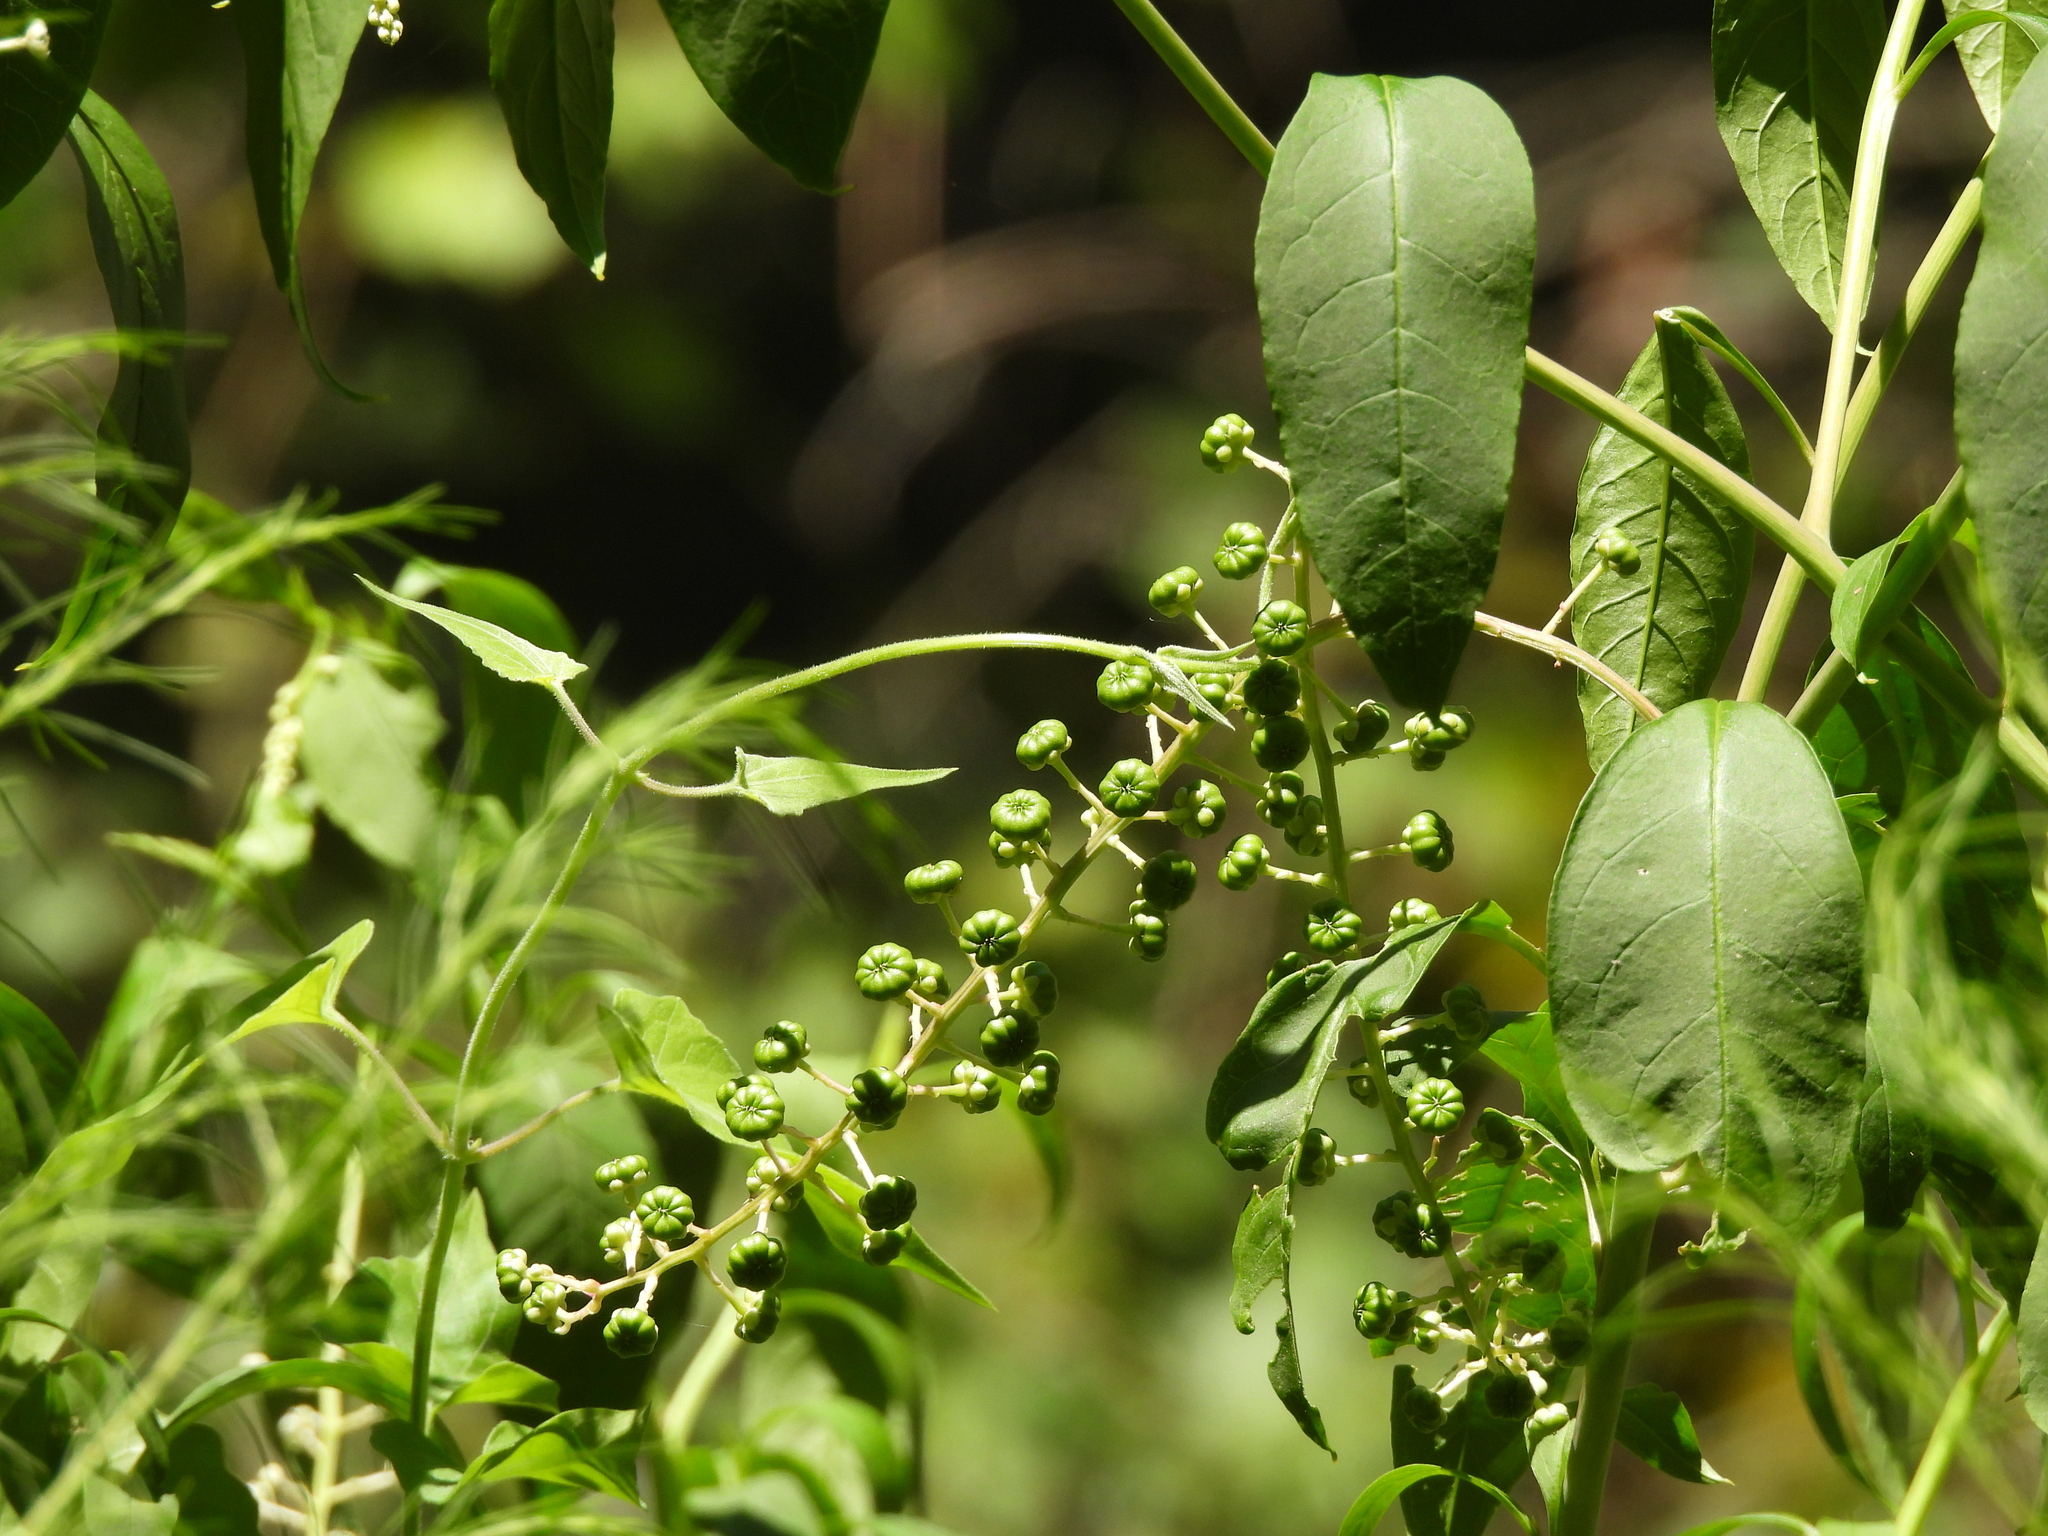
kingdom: Plantae
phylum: Tracheophyta
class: Magnoliopsida
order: Caryophyllales
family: Phytolaccaceae
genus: Phytolacca
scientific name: Phytolacca americana
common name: American pokeweed
